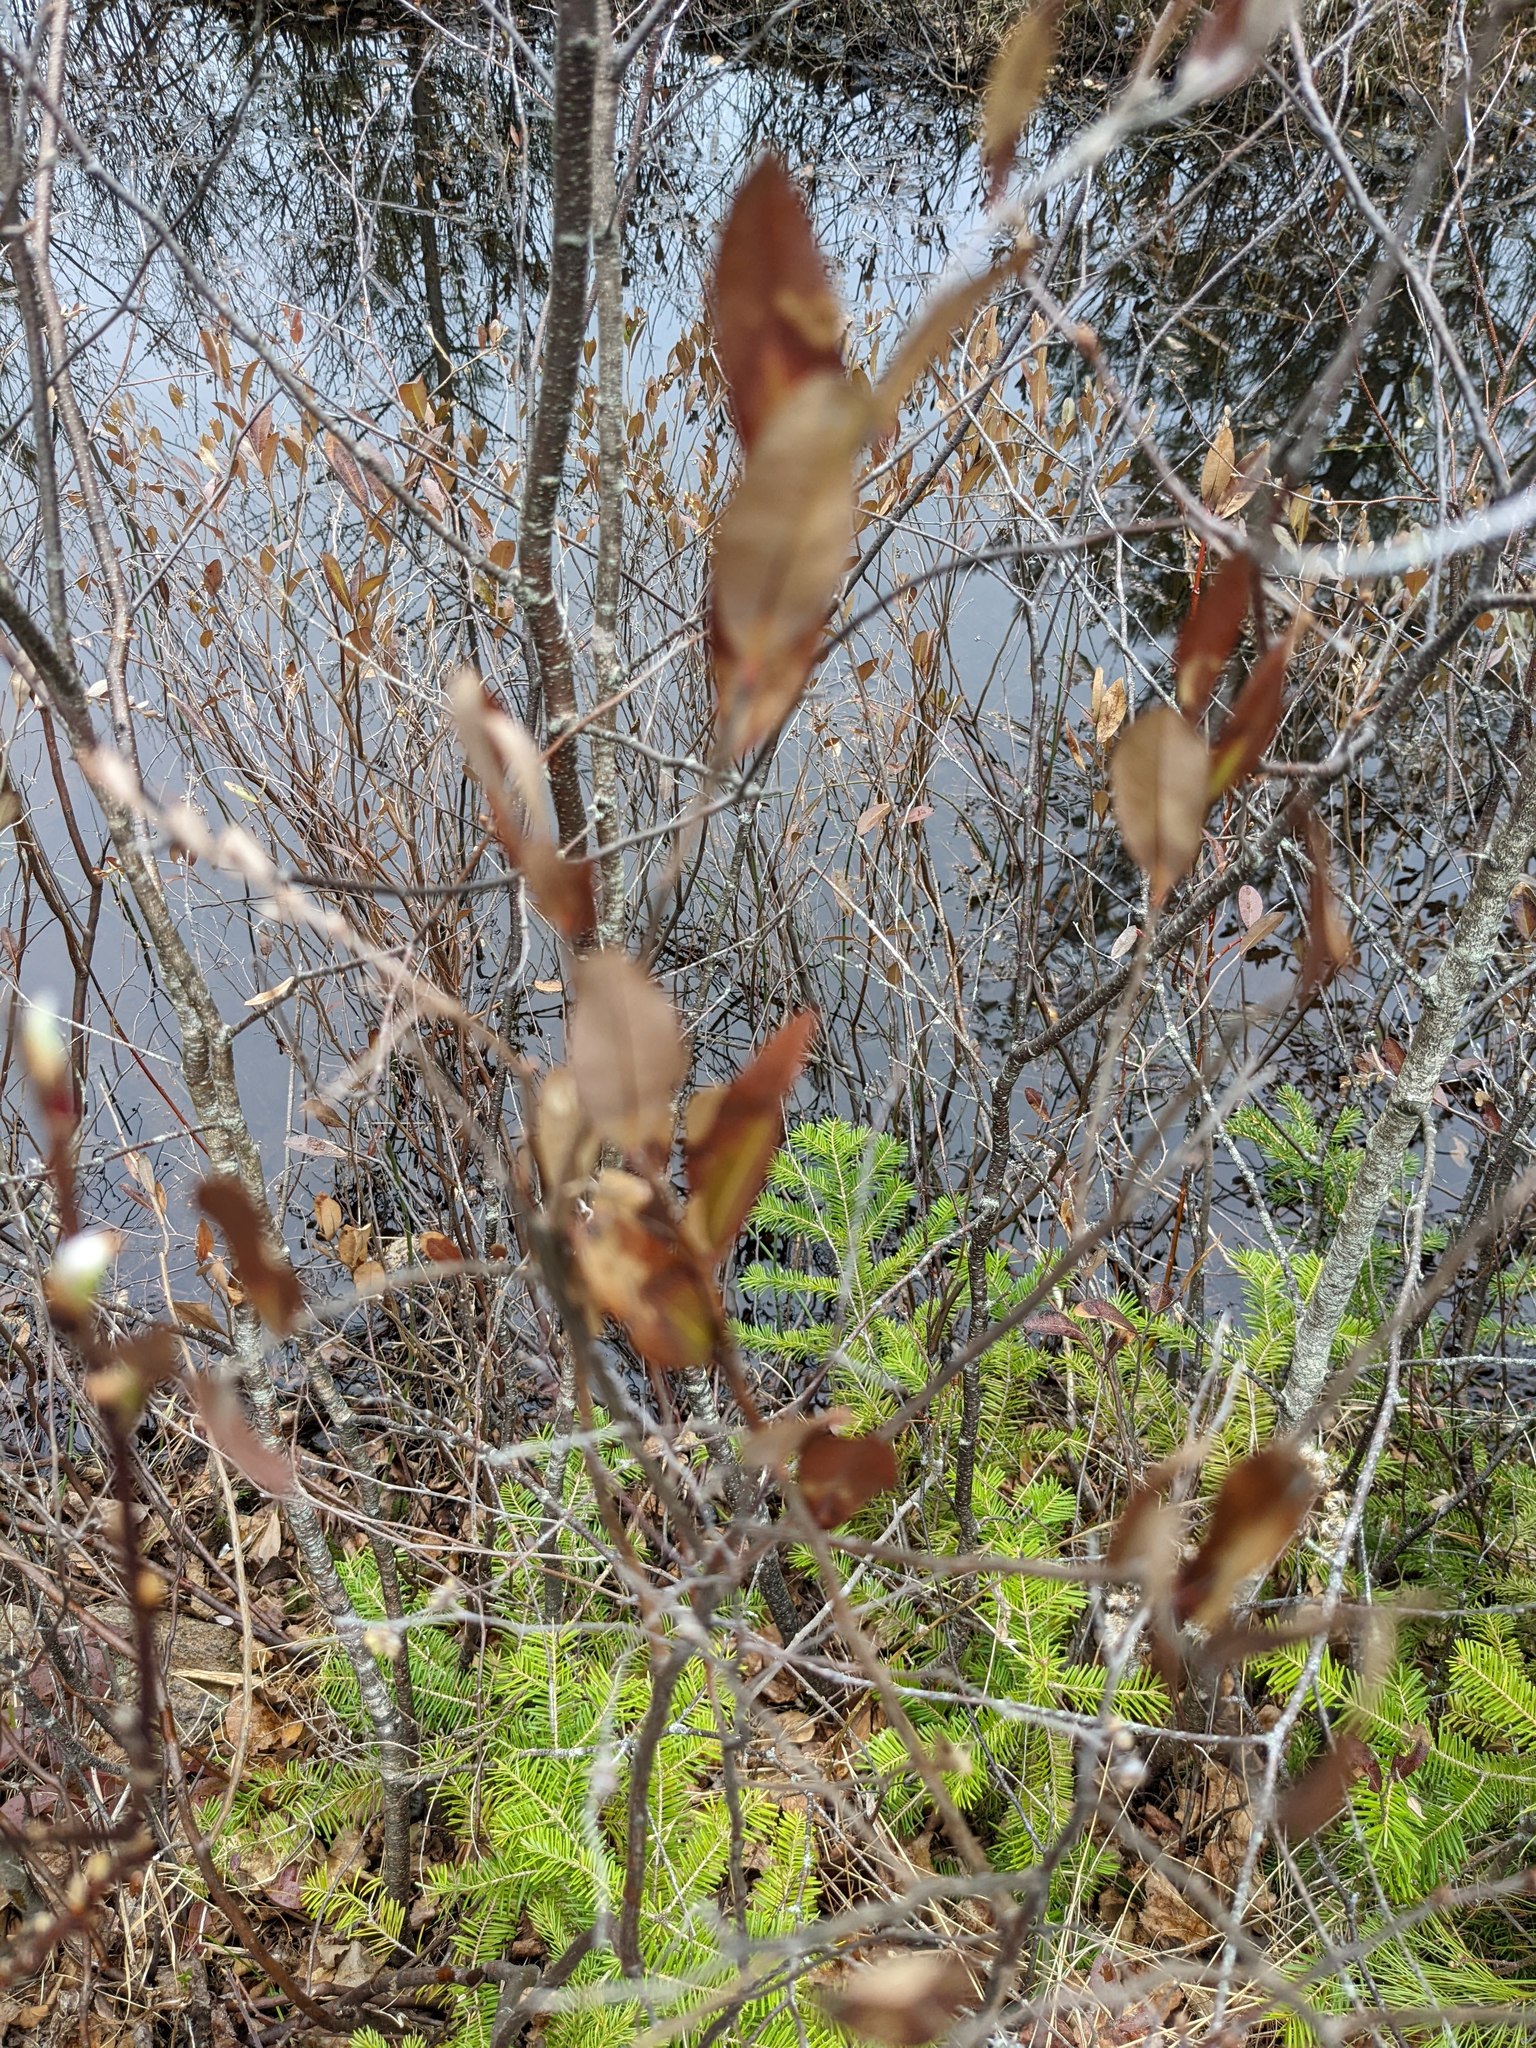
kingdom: Plantae
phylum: Tracheophyta
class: Magnoliopsida
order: Ericales
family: Ericaceae
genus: Chamaedaphne
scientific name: Chamaedaphne calyculata
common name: Leatherleaf
